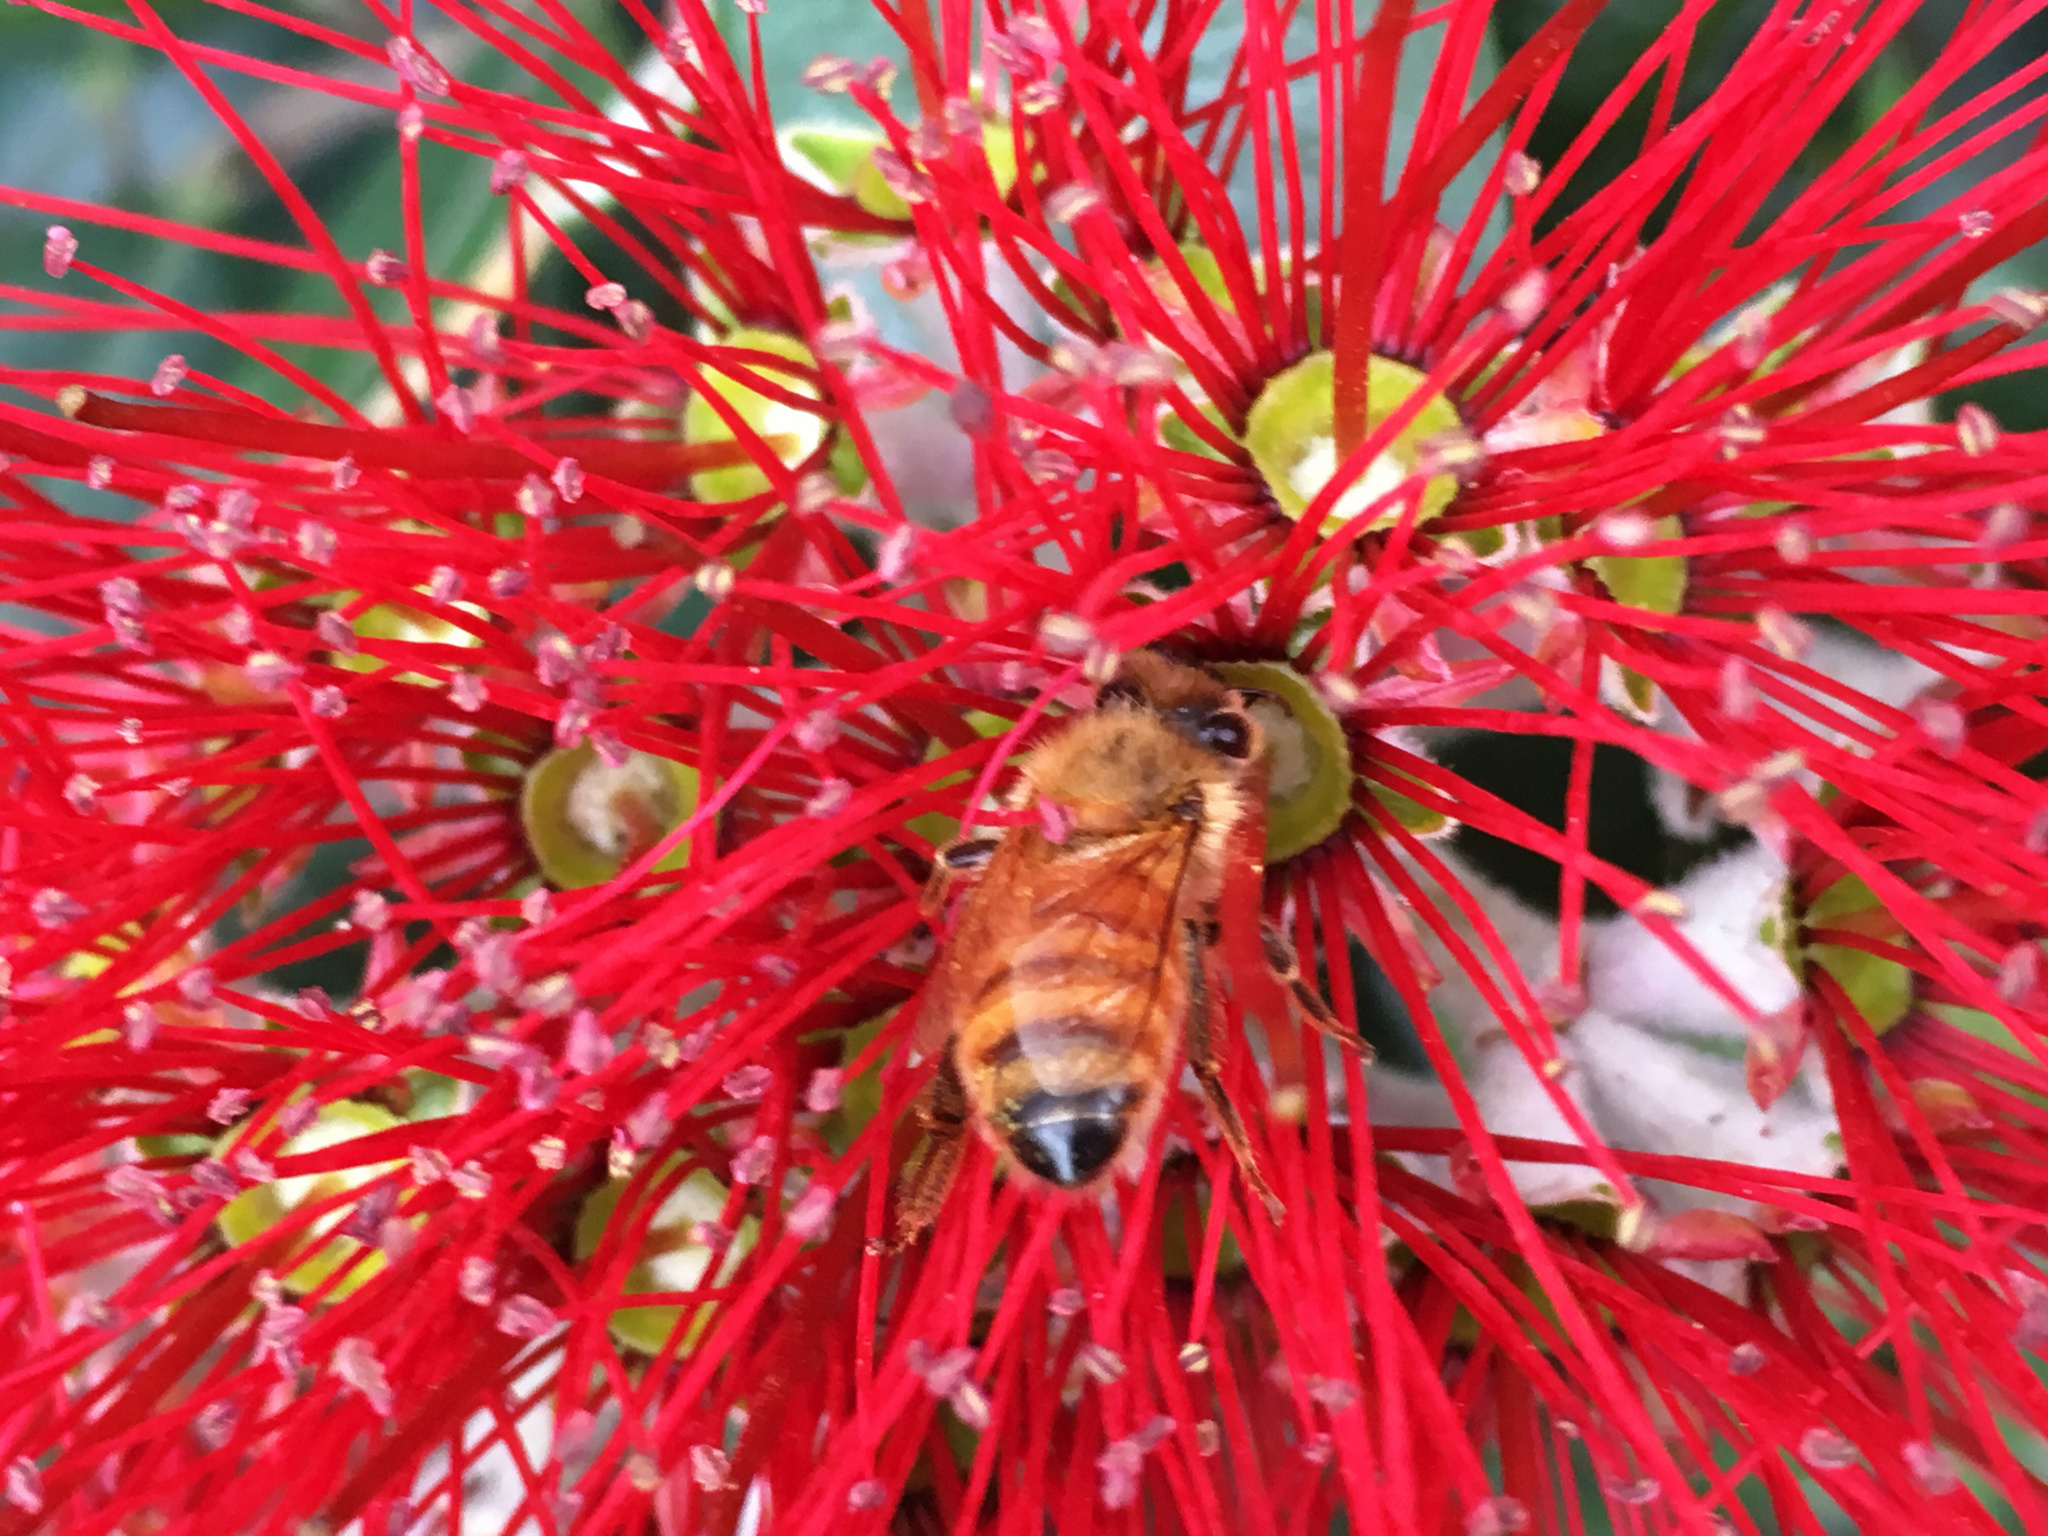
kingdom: Animalia
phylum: Arthropoda
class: Insecta
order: Hymenoptera
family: Apidae
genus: Apis
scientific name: Apis mellifera
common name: Honey bee
